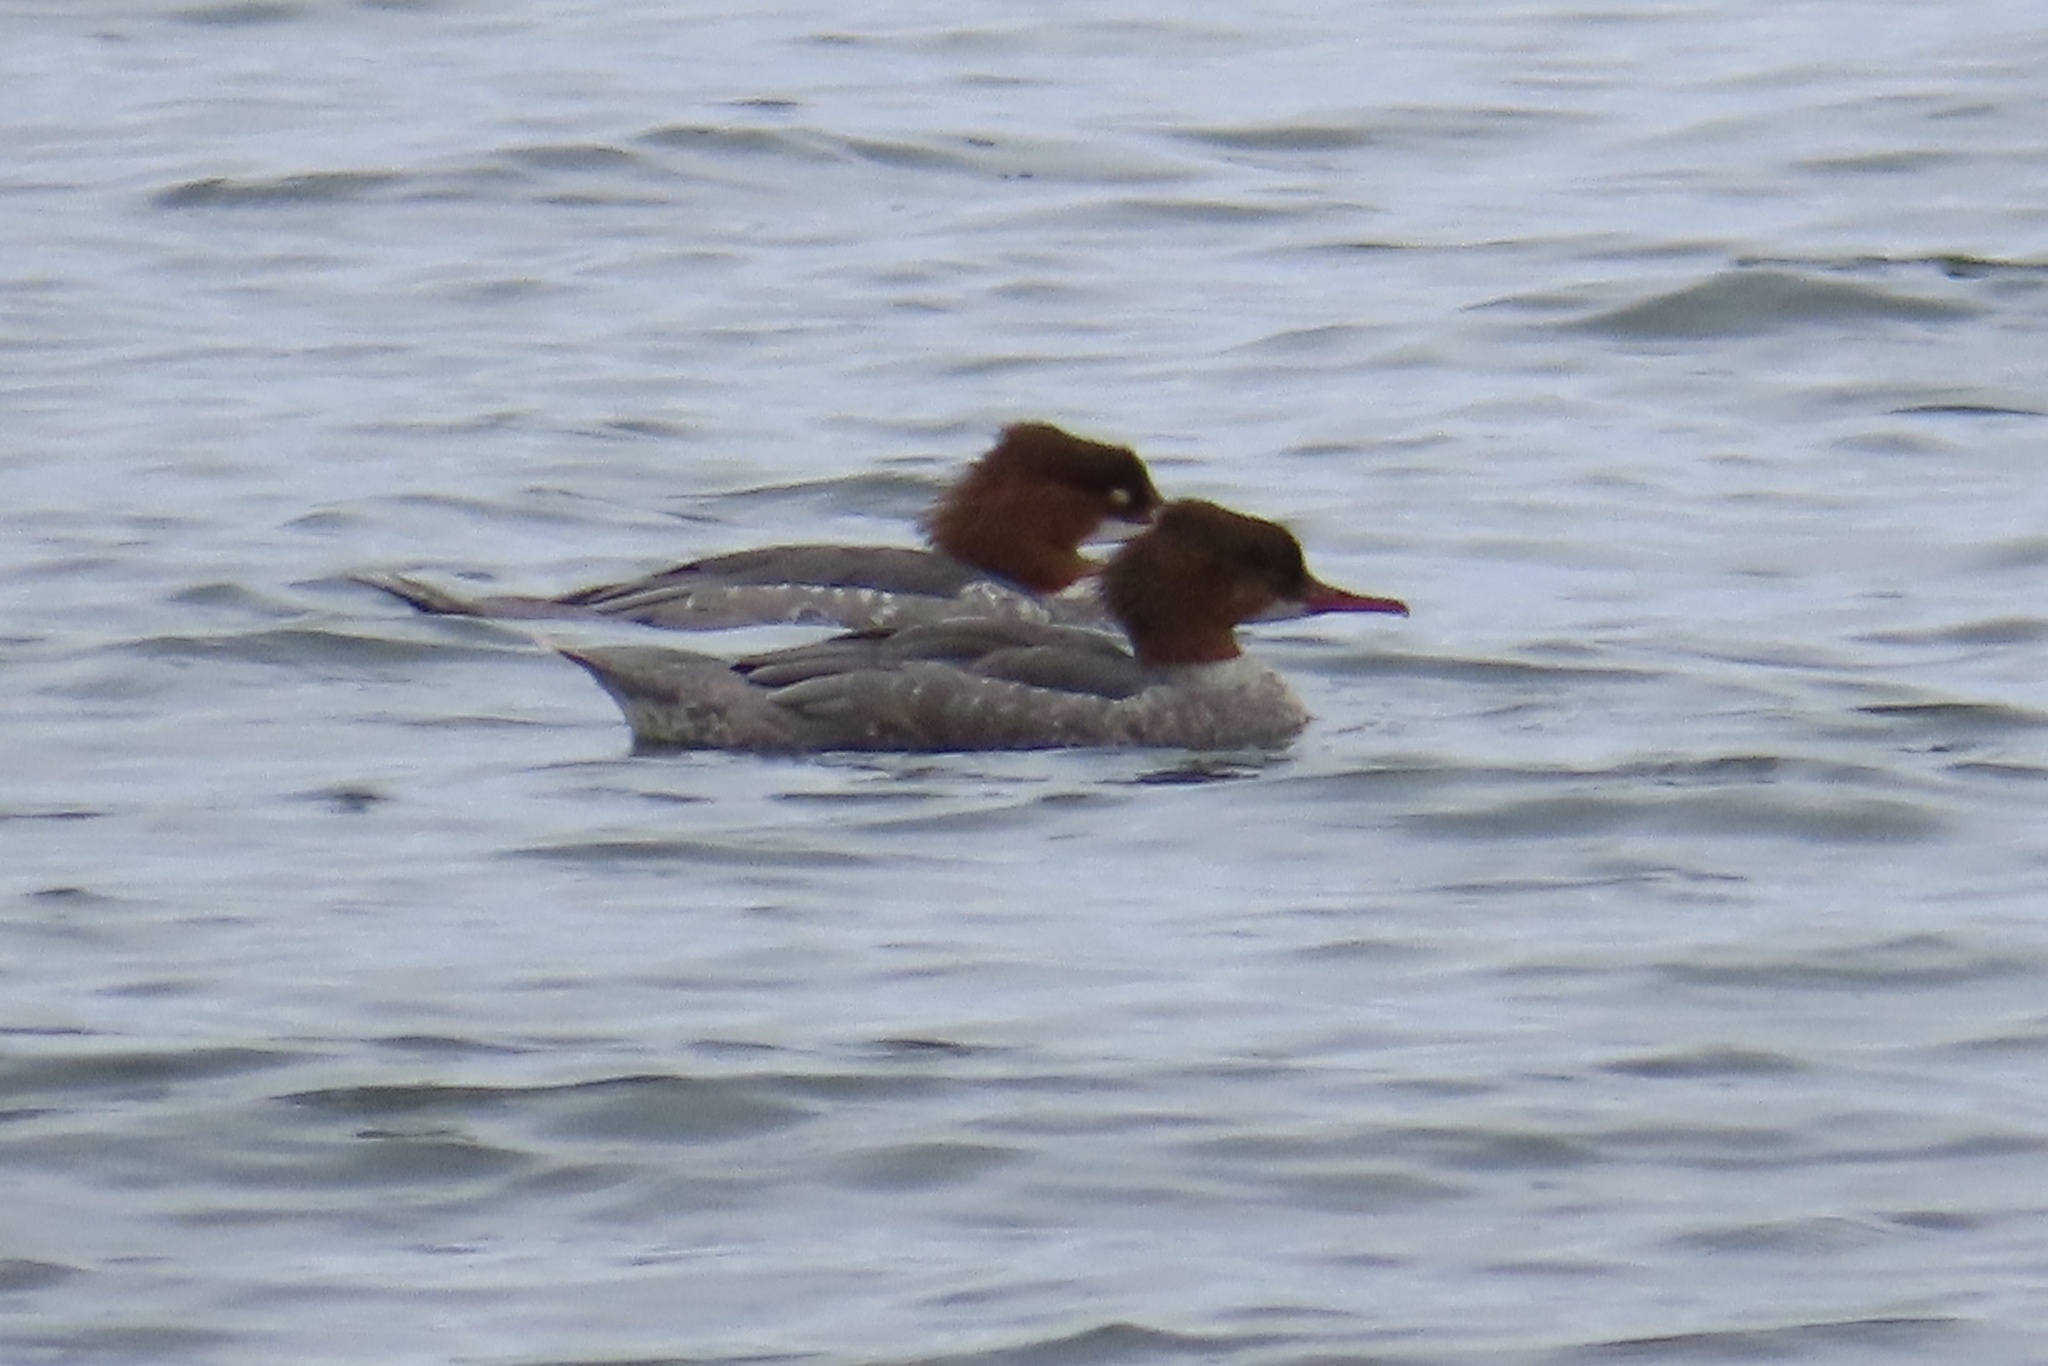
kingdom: Animalia
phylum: Chordata
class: Aves
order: Anseriformes
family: Anatidae
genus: Mergus
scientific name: Mergus merganser
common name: Common merganser
